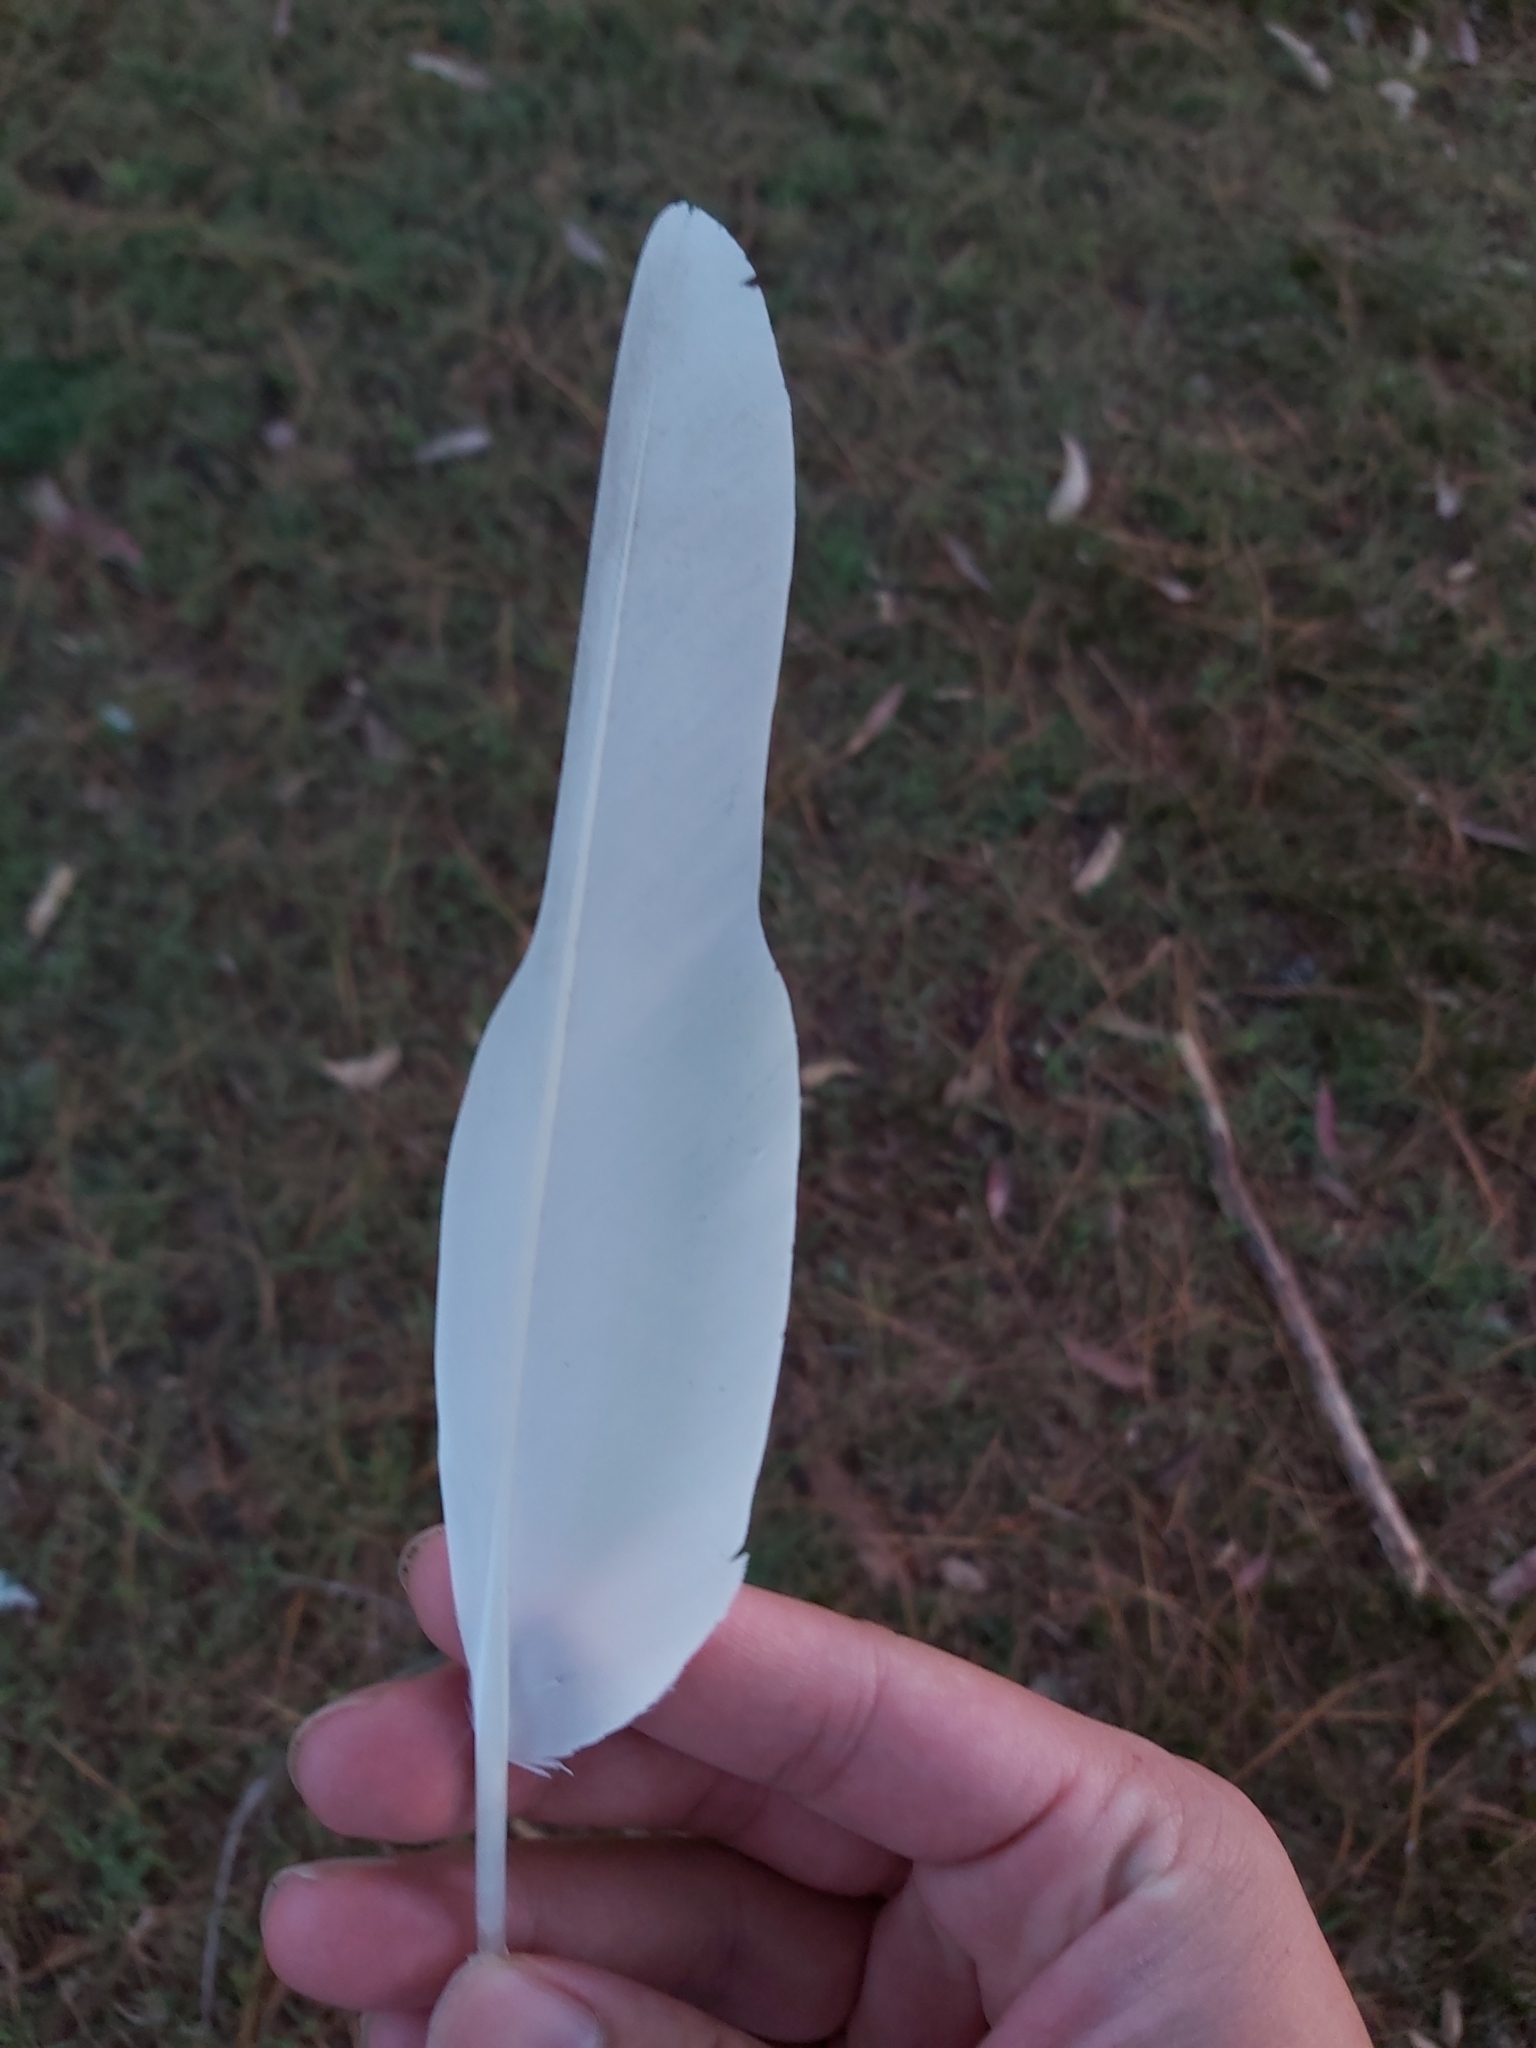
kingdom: Animalia
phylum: Chordata
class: Aves
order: Psittaciformes
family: Psittacidae
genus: Cacatua
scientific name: Cacatua sanguinea
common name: Little corella
